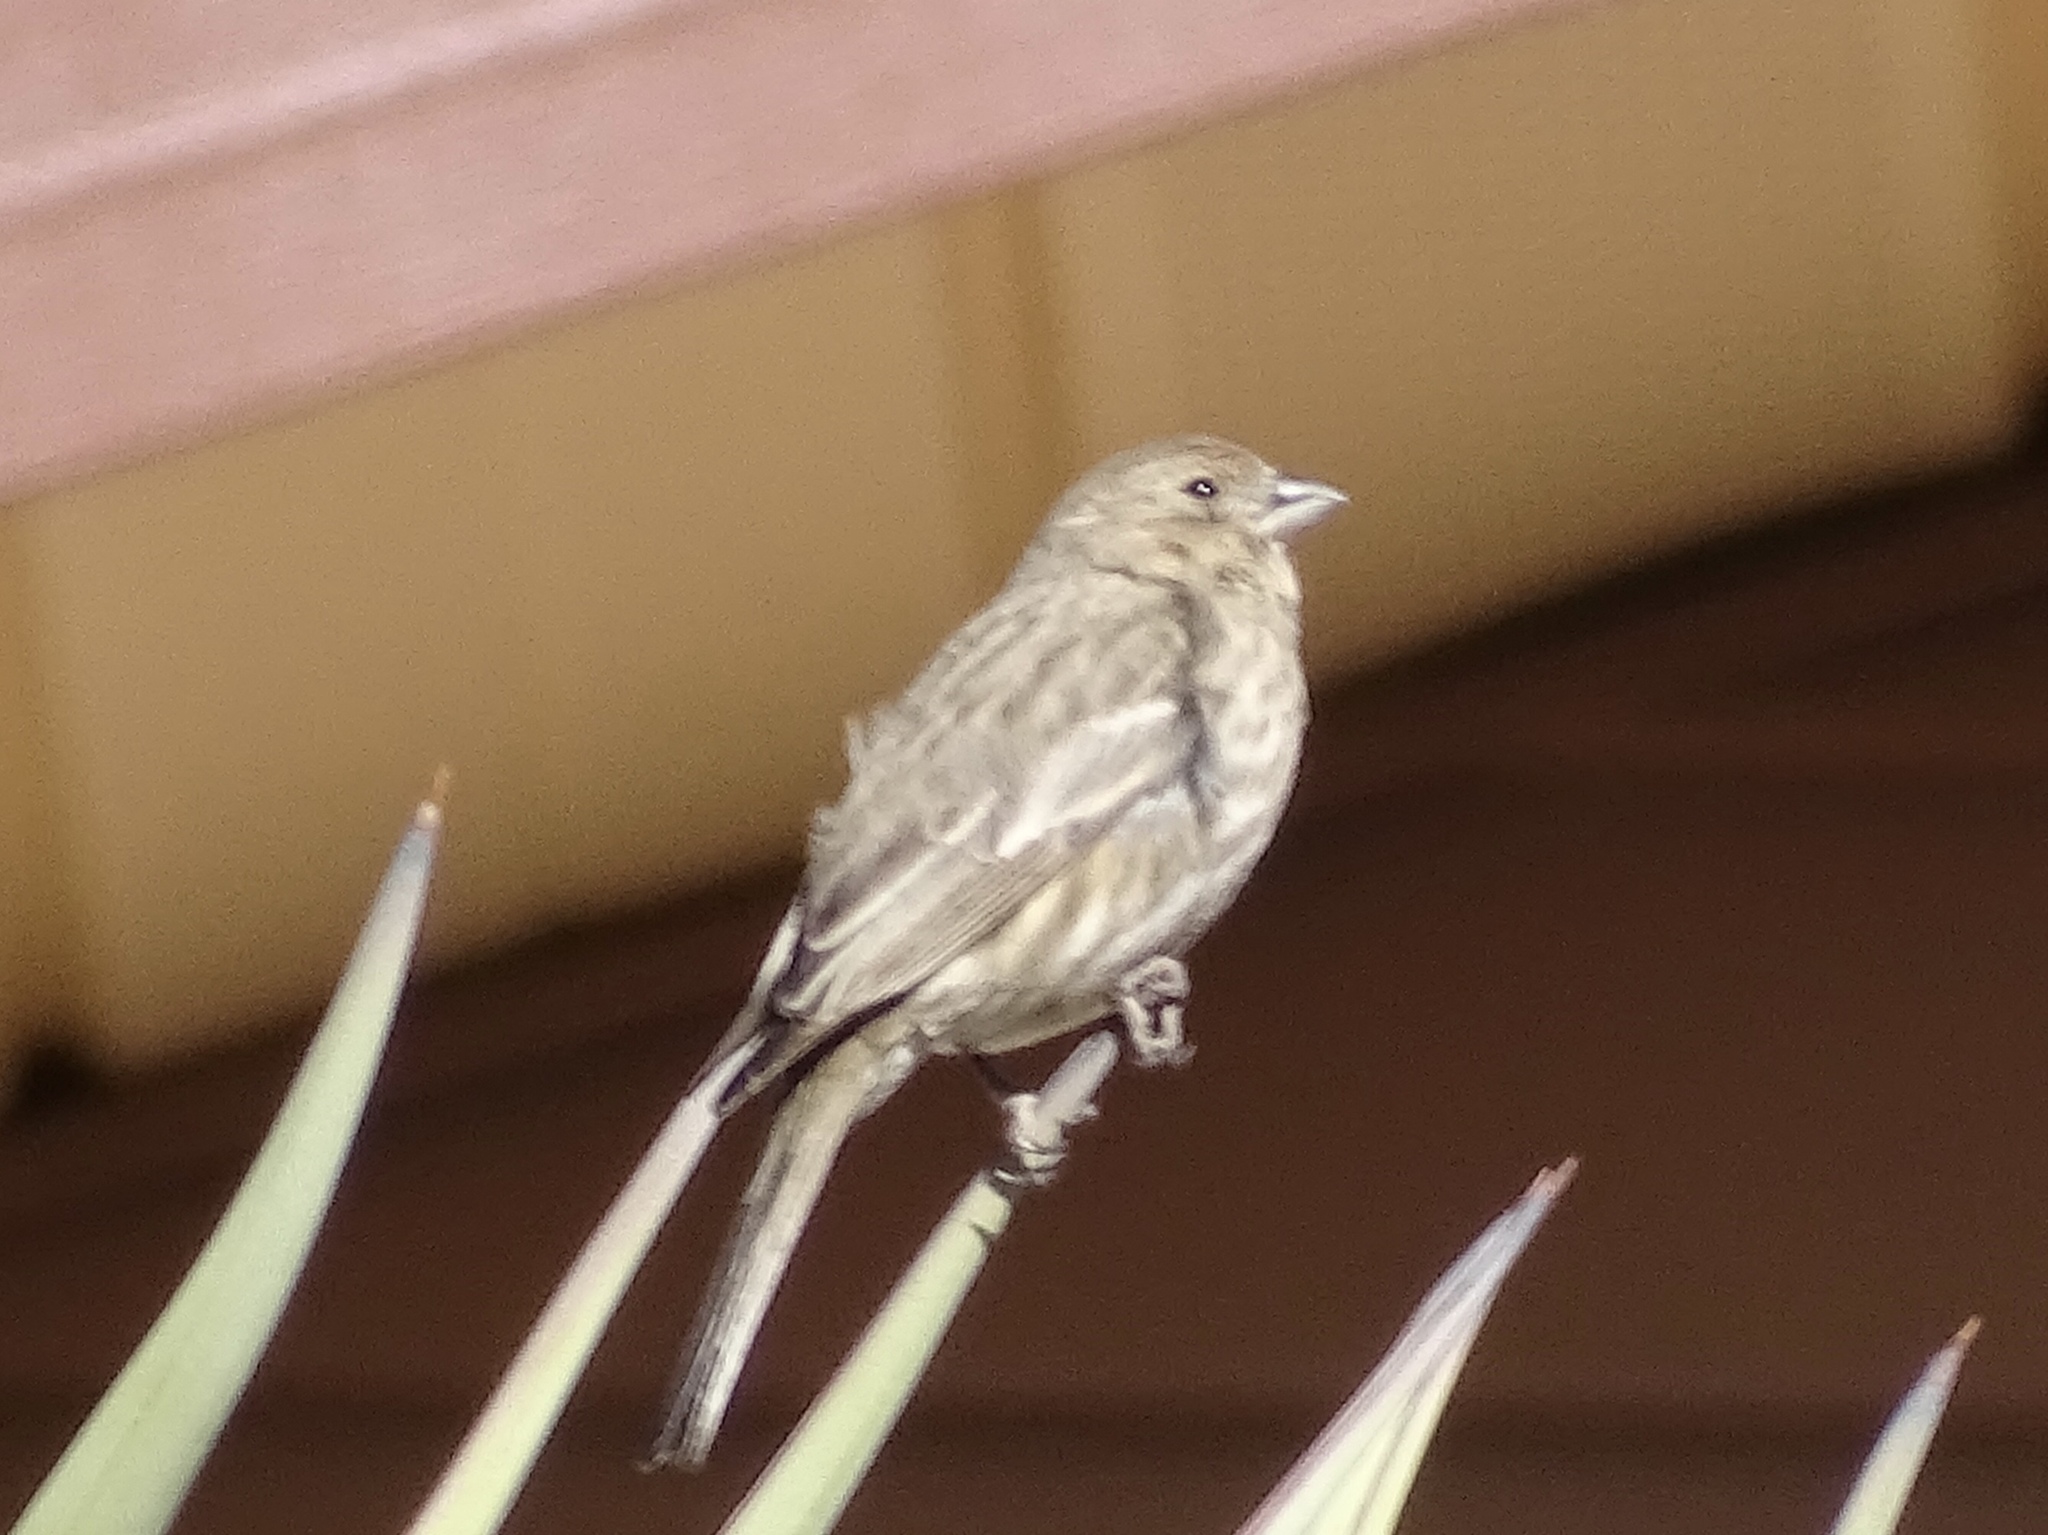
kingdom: Animalia
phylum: Chordata
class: Aves
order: Passeriformes
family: Fringillidae
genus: Haemorhous
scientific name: Haemorhous mexicanus
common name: House finch
